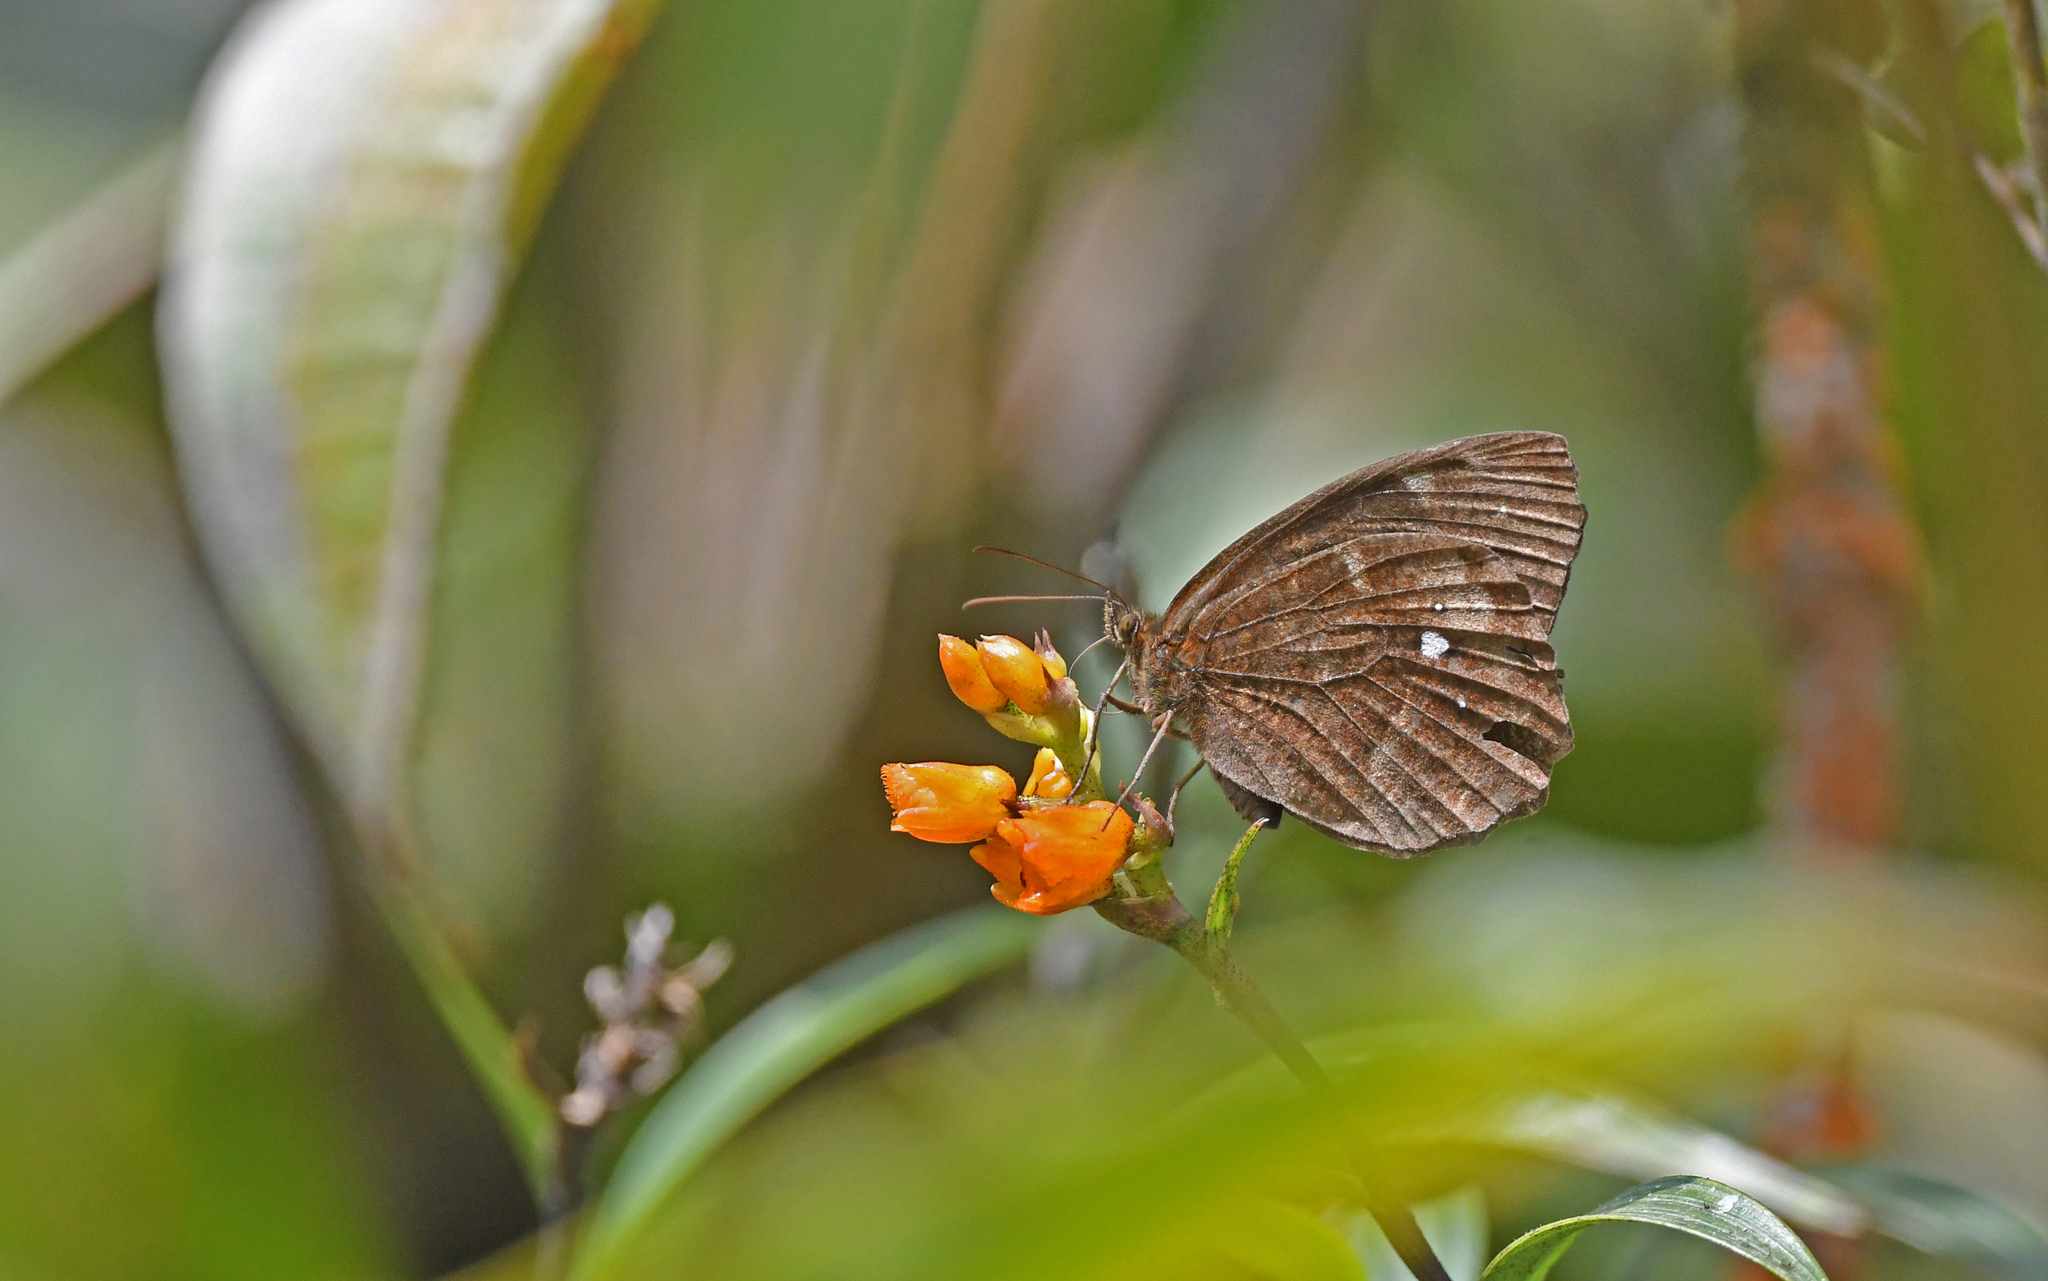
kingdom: Animalia
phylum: Arthropoda
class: Insecta
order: Lepidoptera
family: Nymphalidae
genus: Pedaliodes
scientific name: Pedaliodes phrasicla
